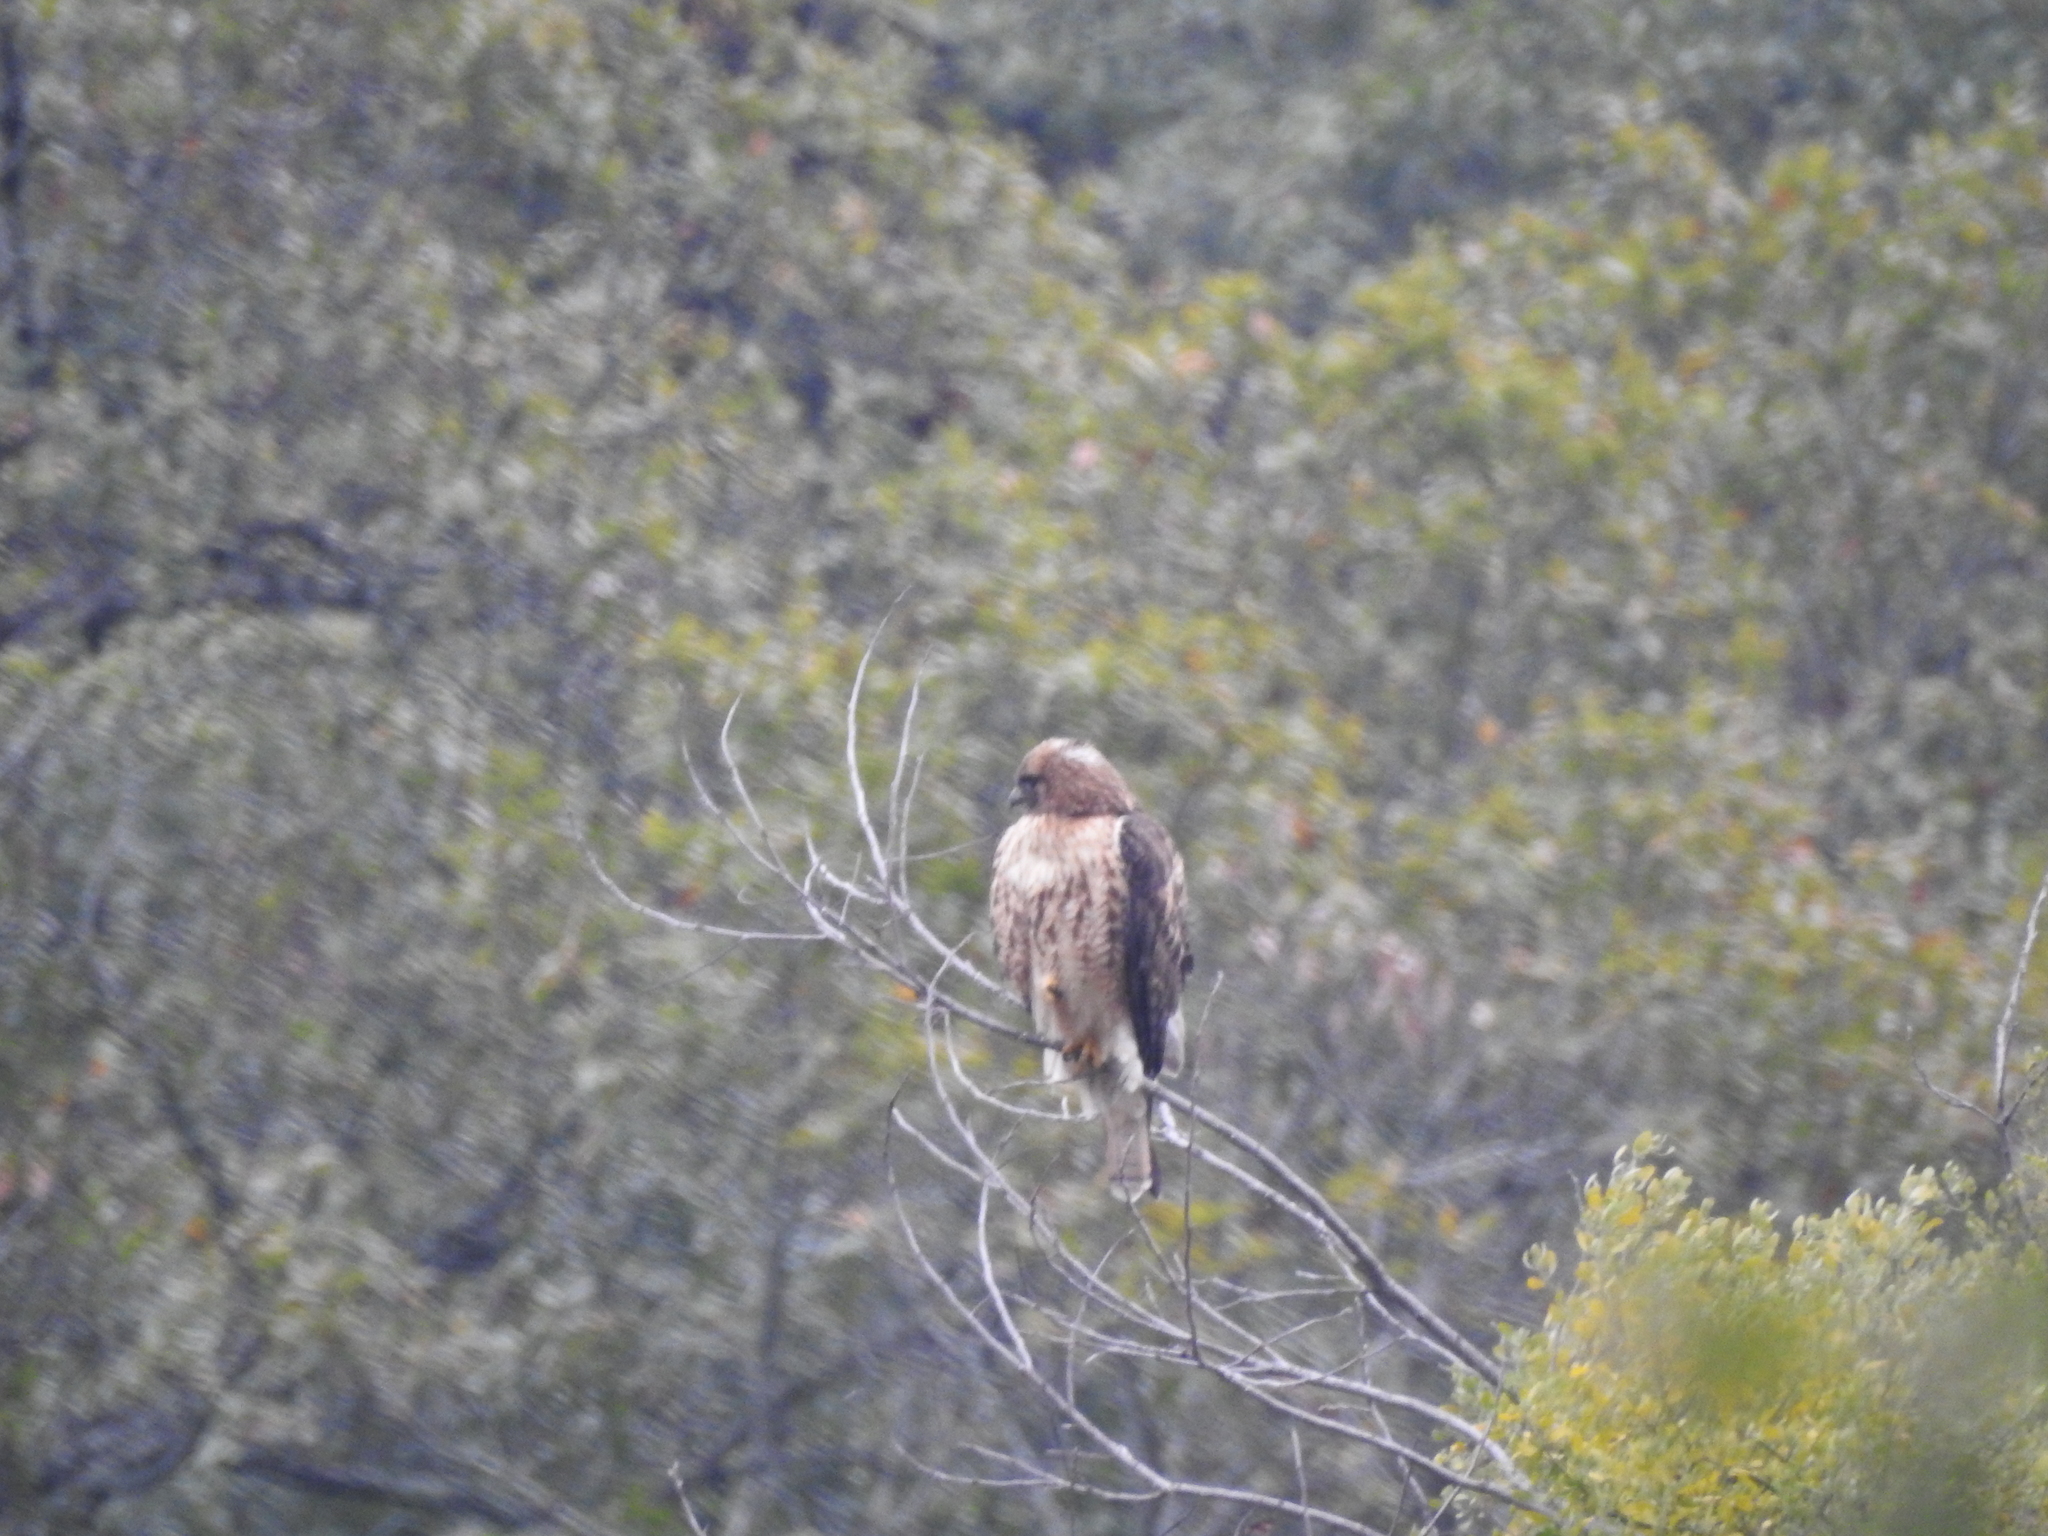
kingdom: Animalia
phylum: Chordata
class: Aves
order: Accipitriformes
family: Accipitridae
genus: Buteo
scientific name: Buteo jamaicensis
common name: Red-tailed hawk
